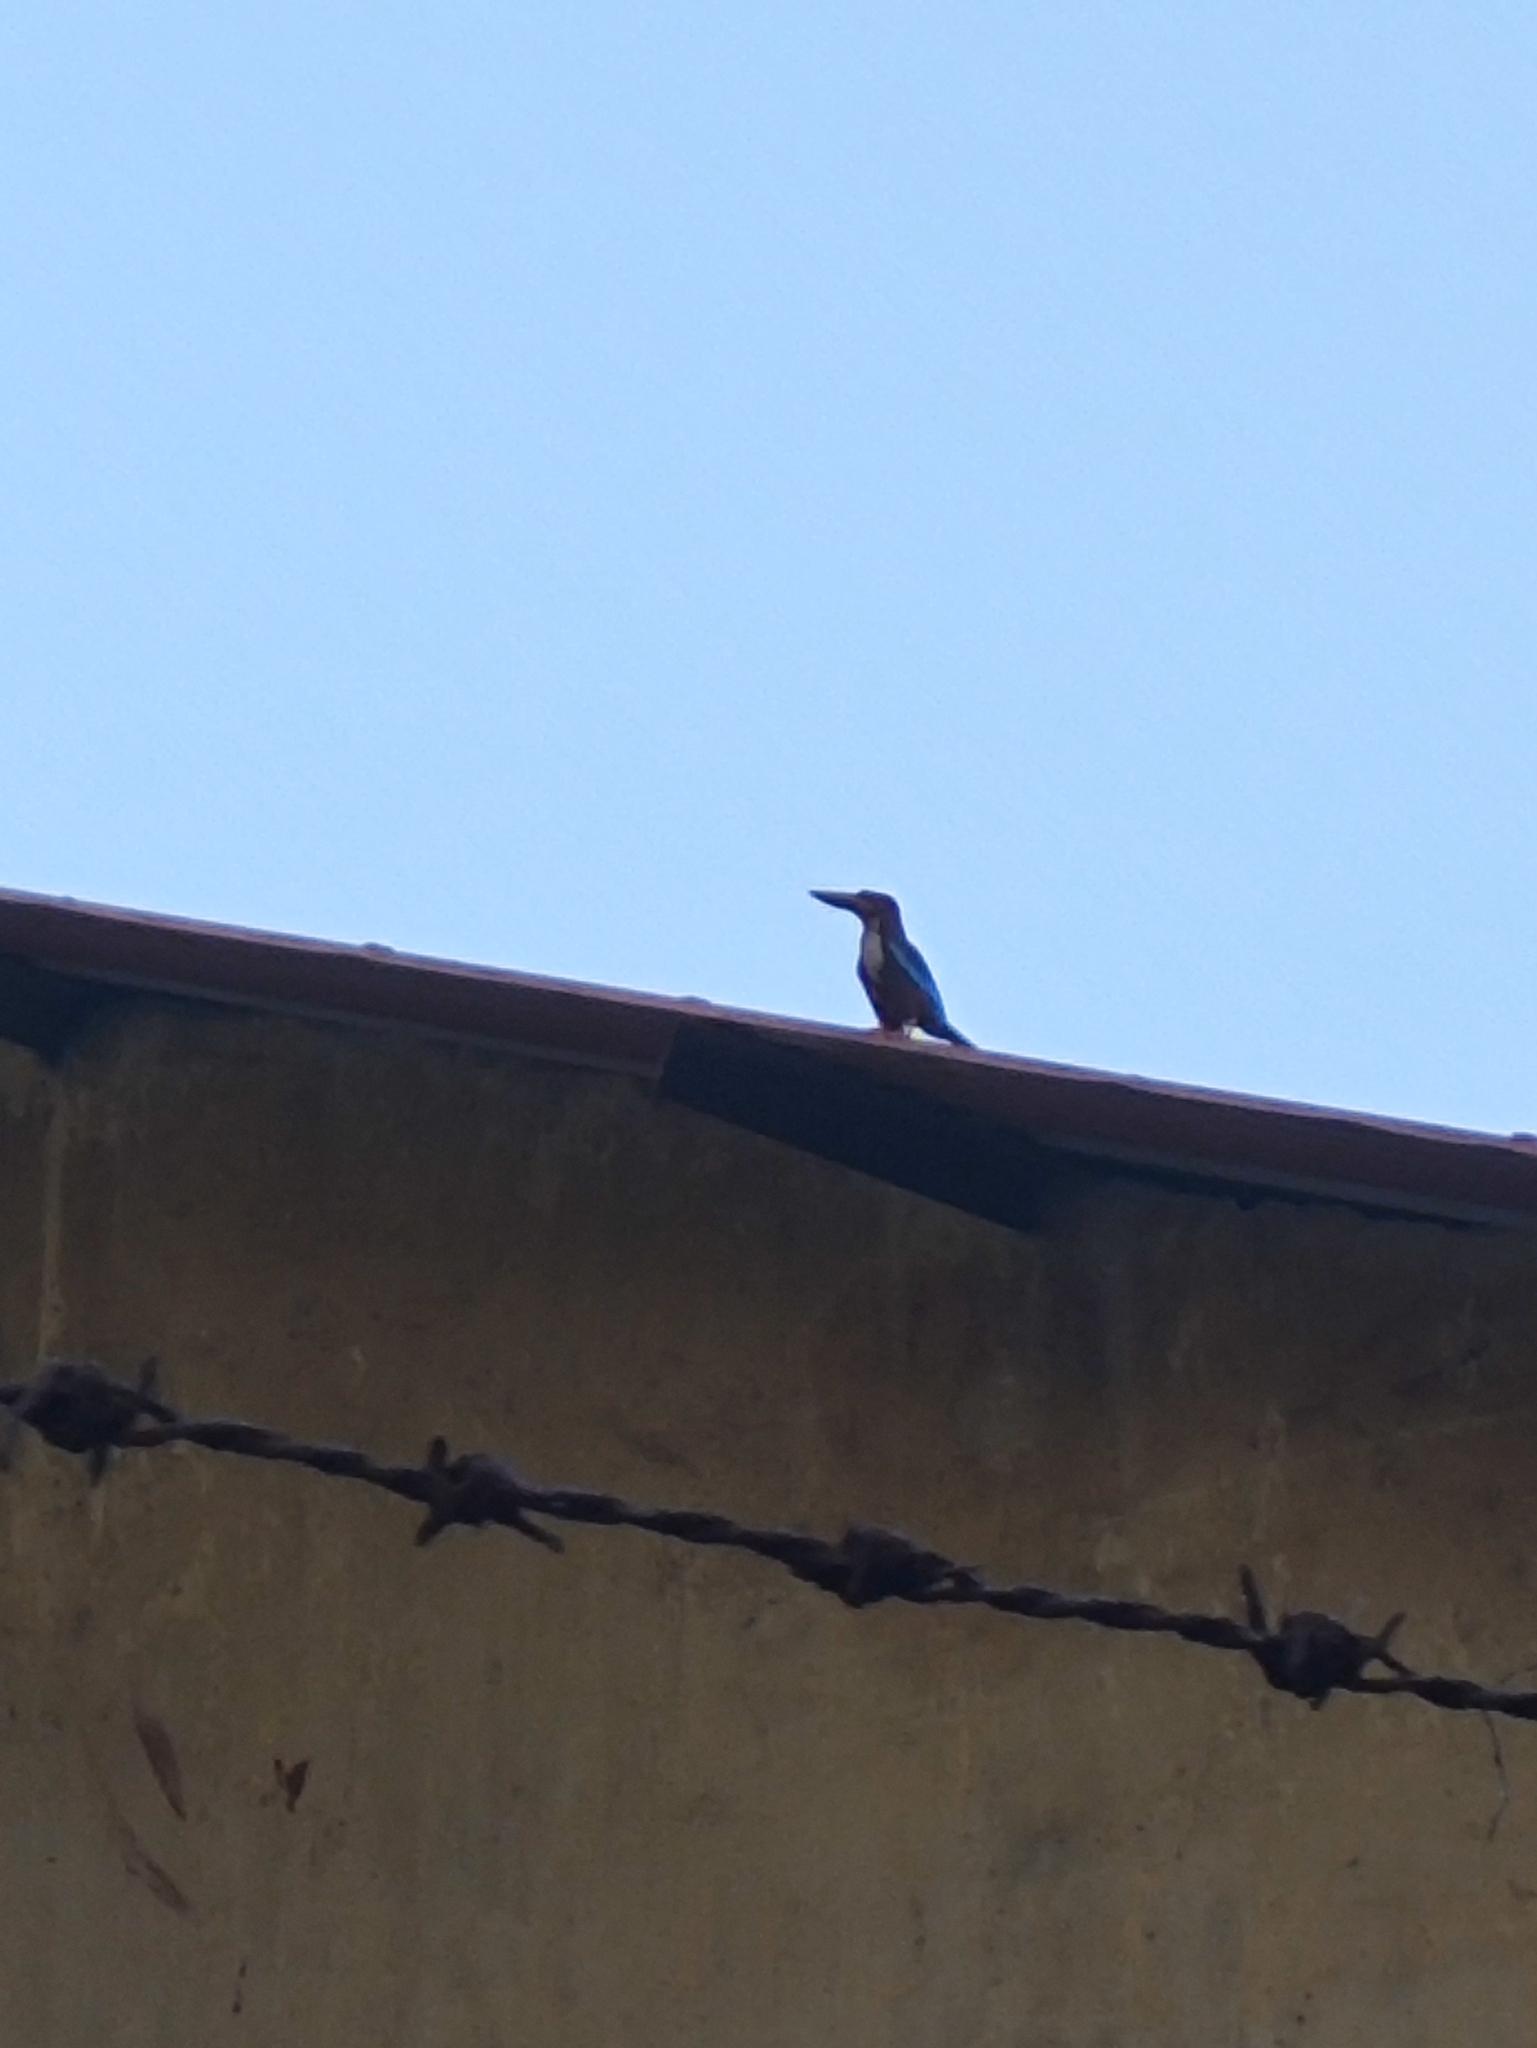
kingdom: Animalia
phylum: Chordata
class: Aves
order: Coraciiformes
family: Alcedinidae
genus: Halcyon
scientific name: Halcyon smyrnensis
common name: White-throated kingfisher
